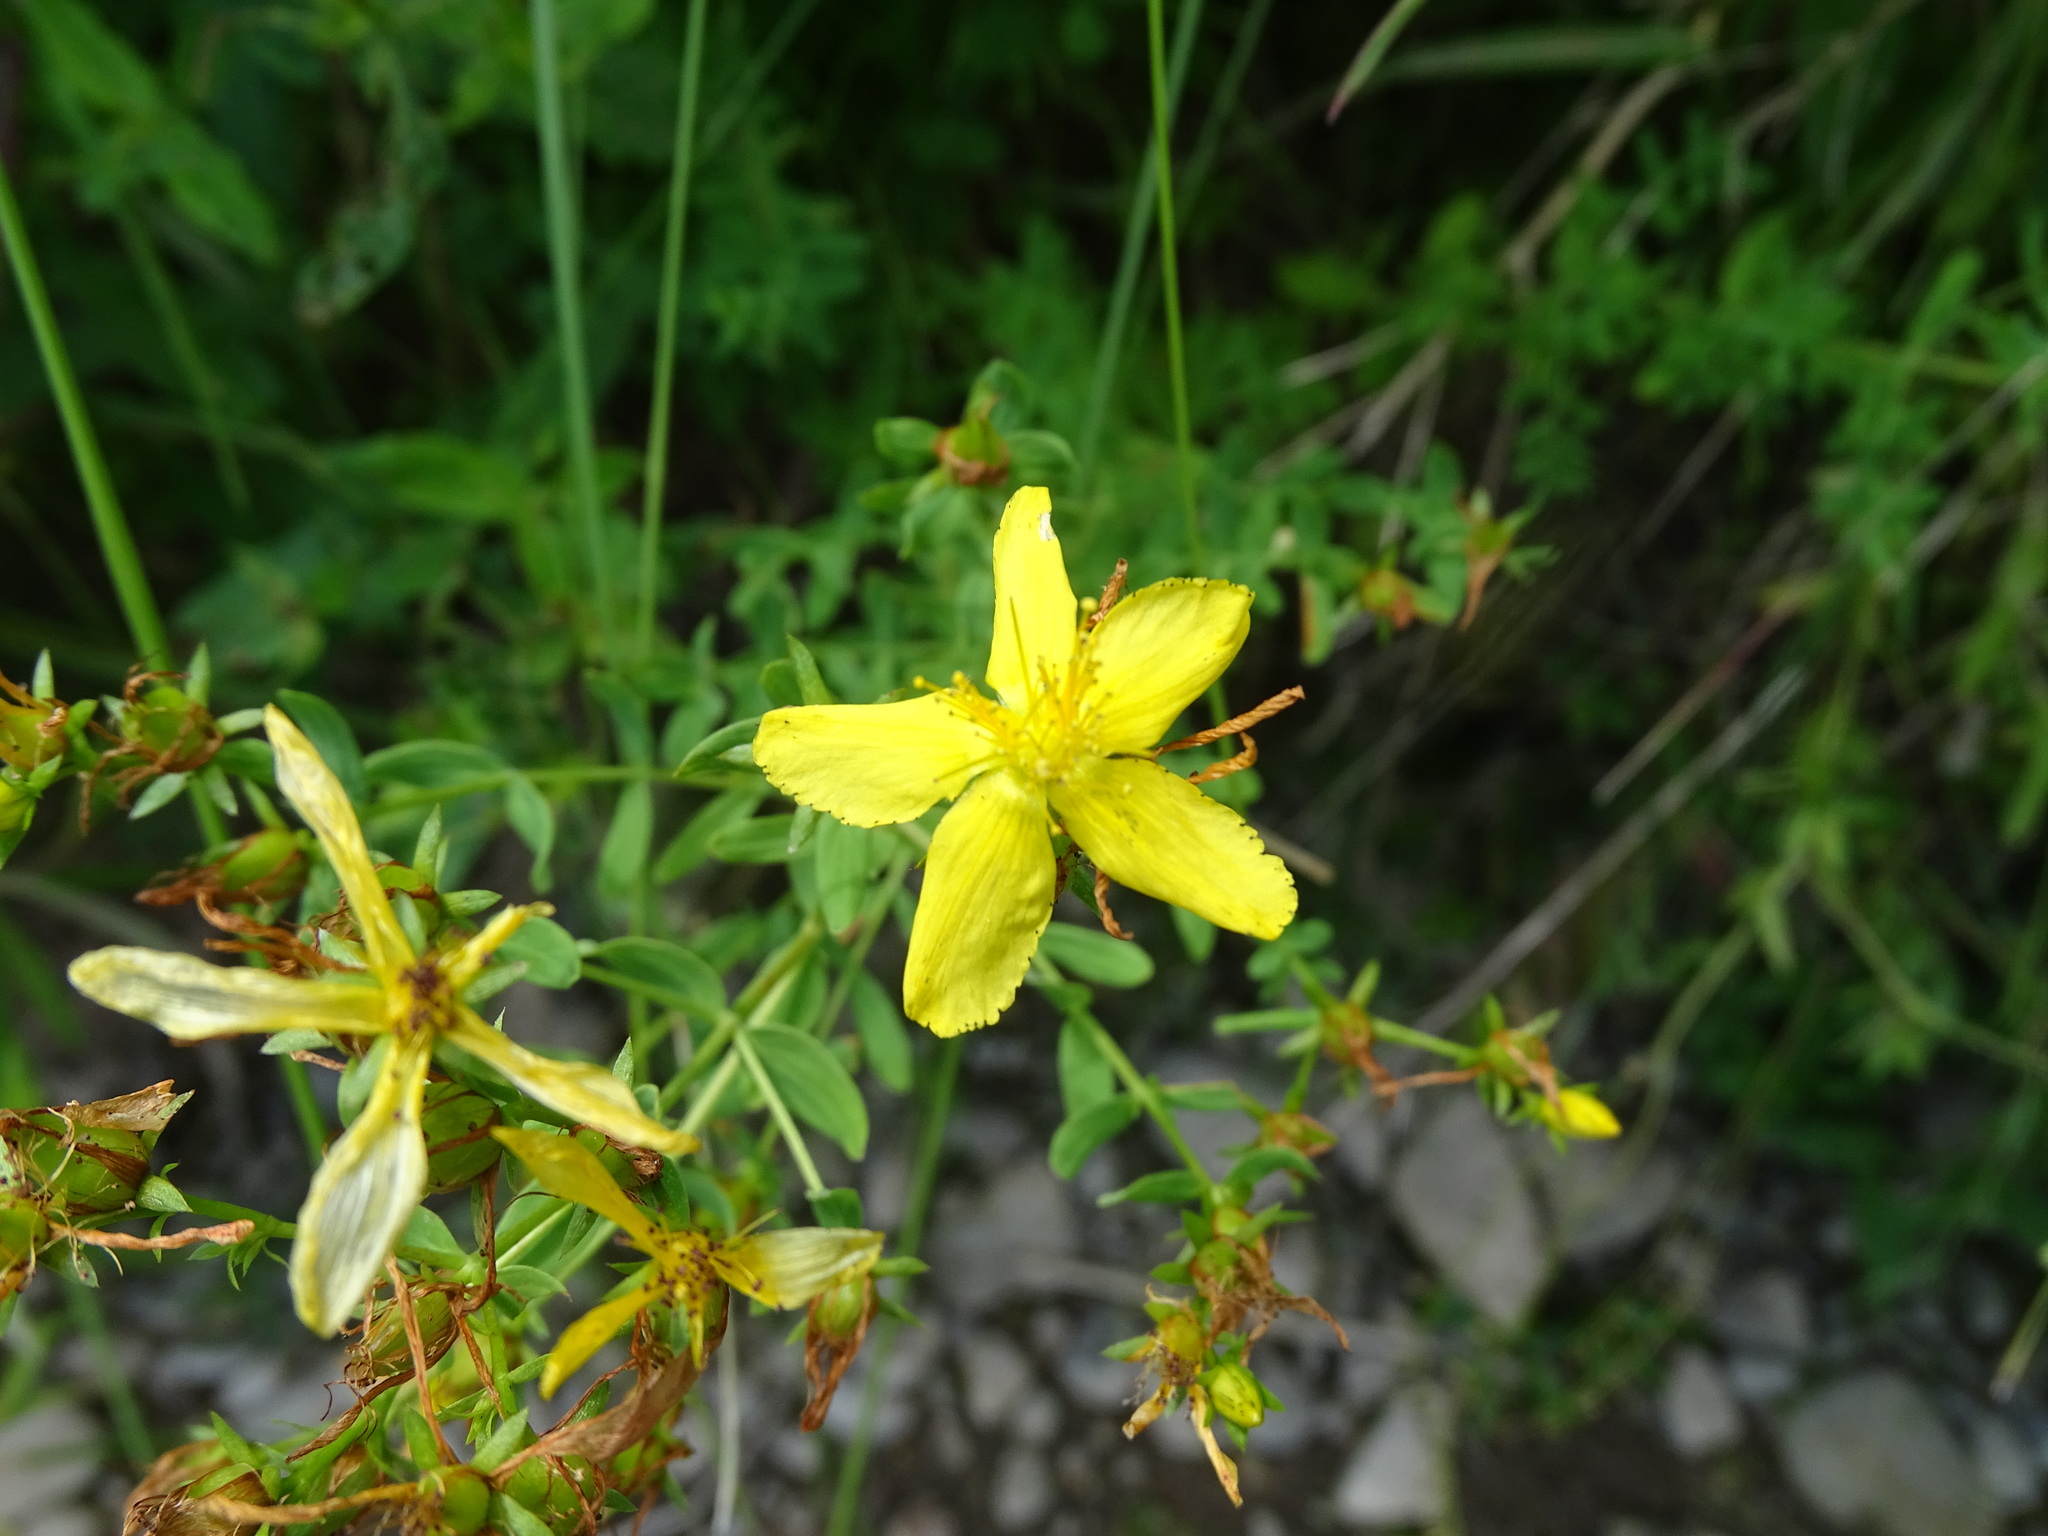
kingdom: Plantae
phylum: Tracheophyta
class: Magnoliopsida
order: Malpighiales
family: Hypericaceae
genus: Hypericum
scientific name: Hypericum perforatum
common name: Common st. johnswort
